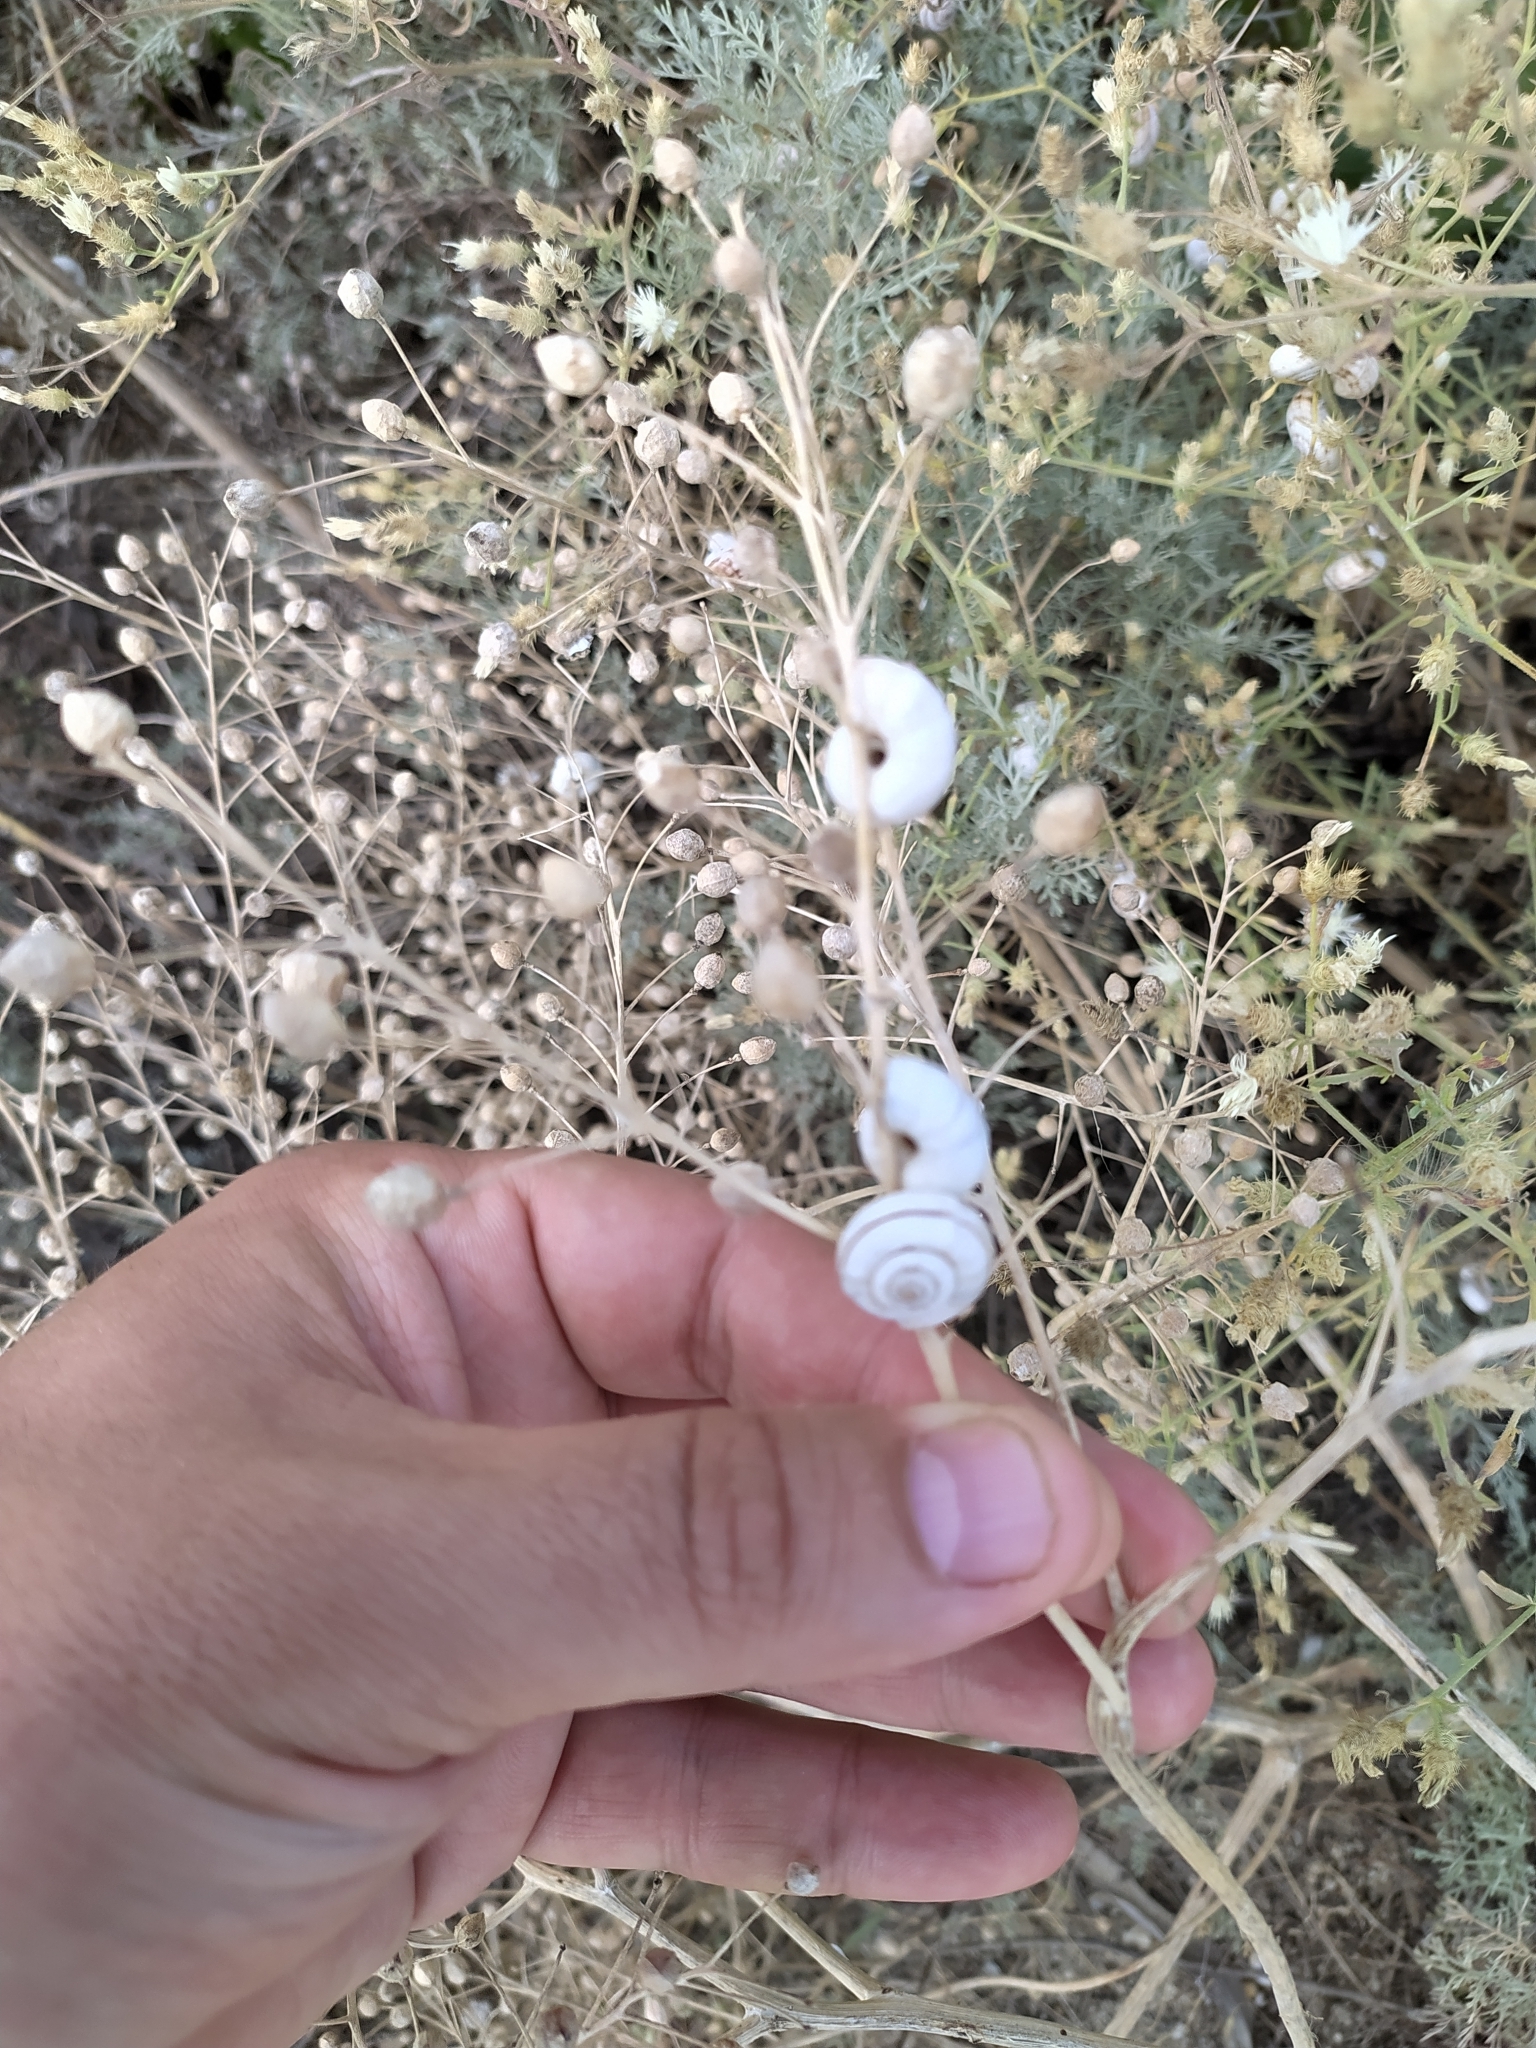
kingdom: Animalia
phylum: Mollusca
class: Gastropoda
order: Stylommatophora
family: Geomitridae
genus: Xeropicta
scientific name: Xeropicta derbentina
